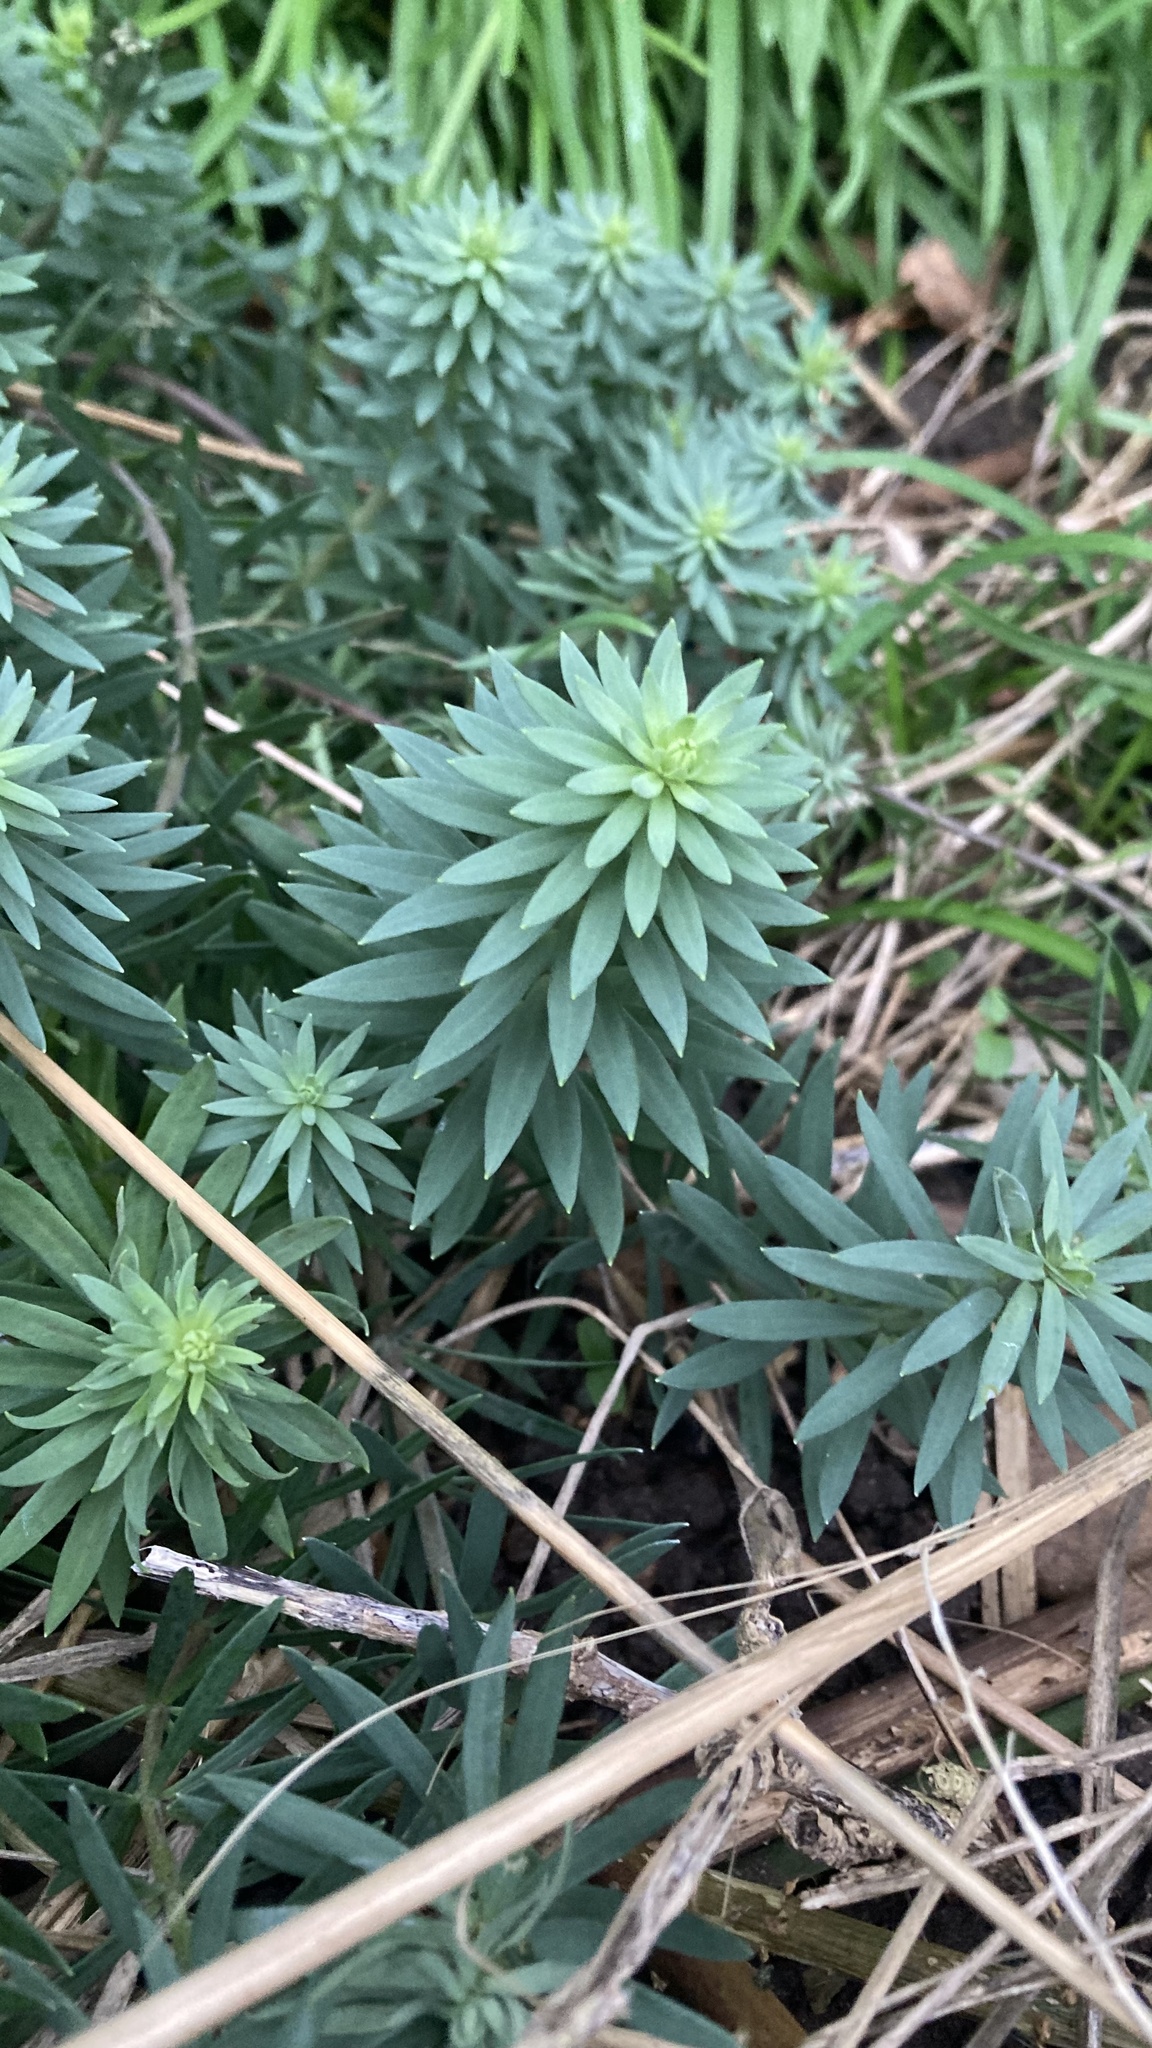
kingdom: Plantae
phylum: Tracheophyta
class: Magnoliopsida
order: Lamiales
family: Plantaginaceae
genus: Linaria
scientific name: Linaria purpurea
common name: Purple toadflax
